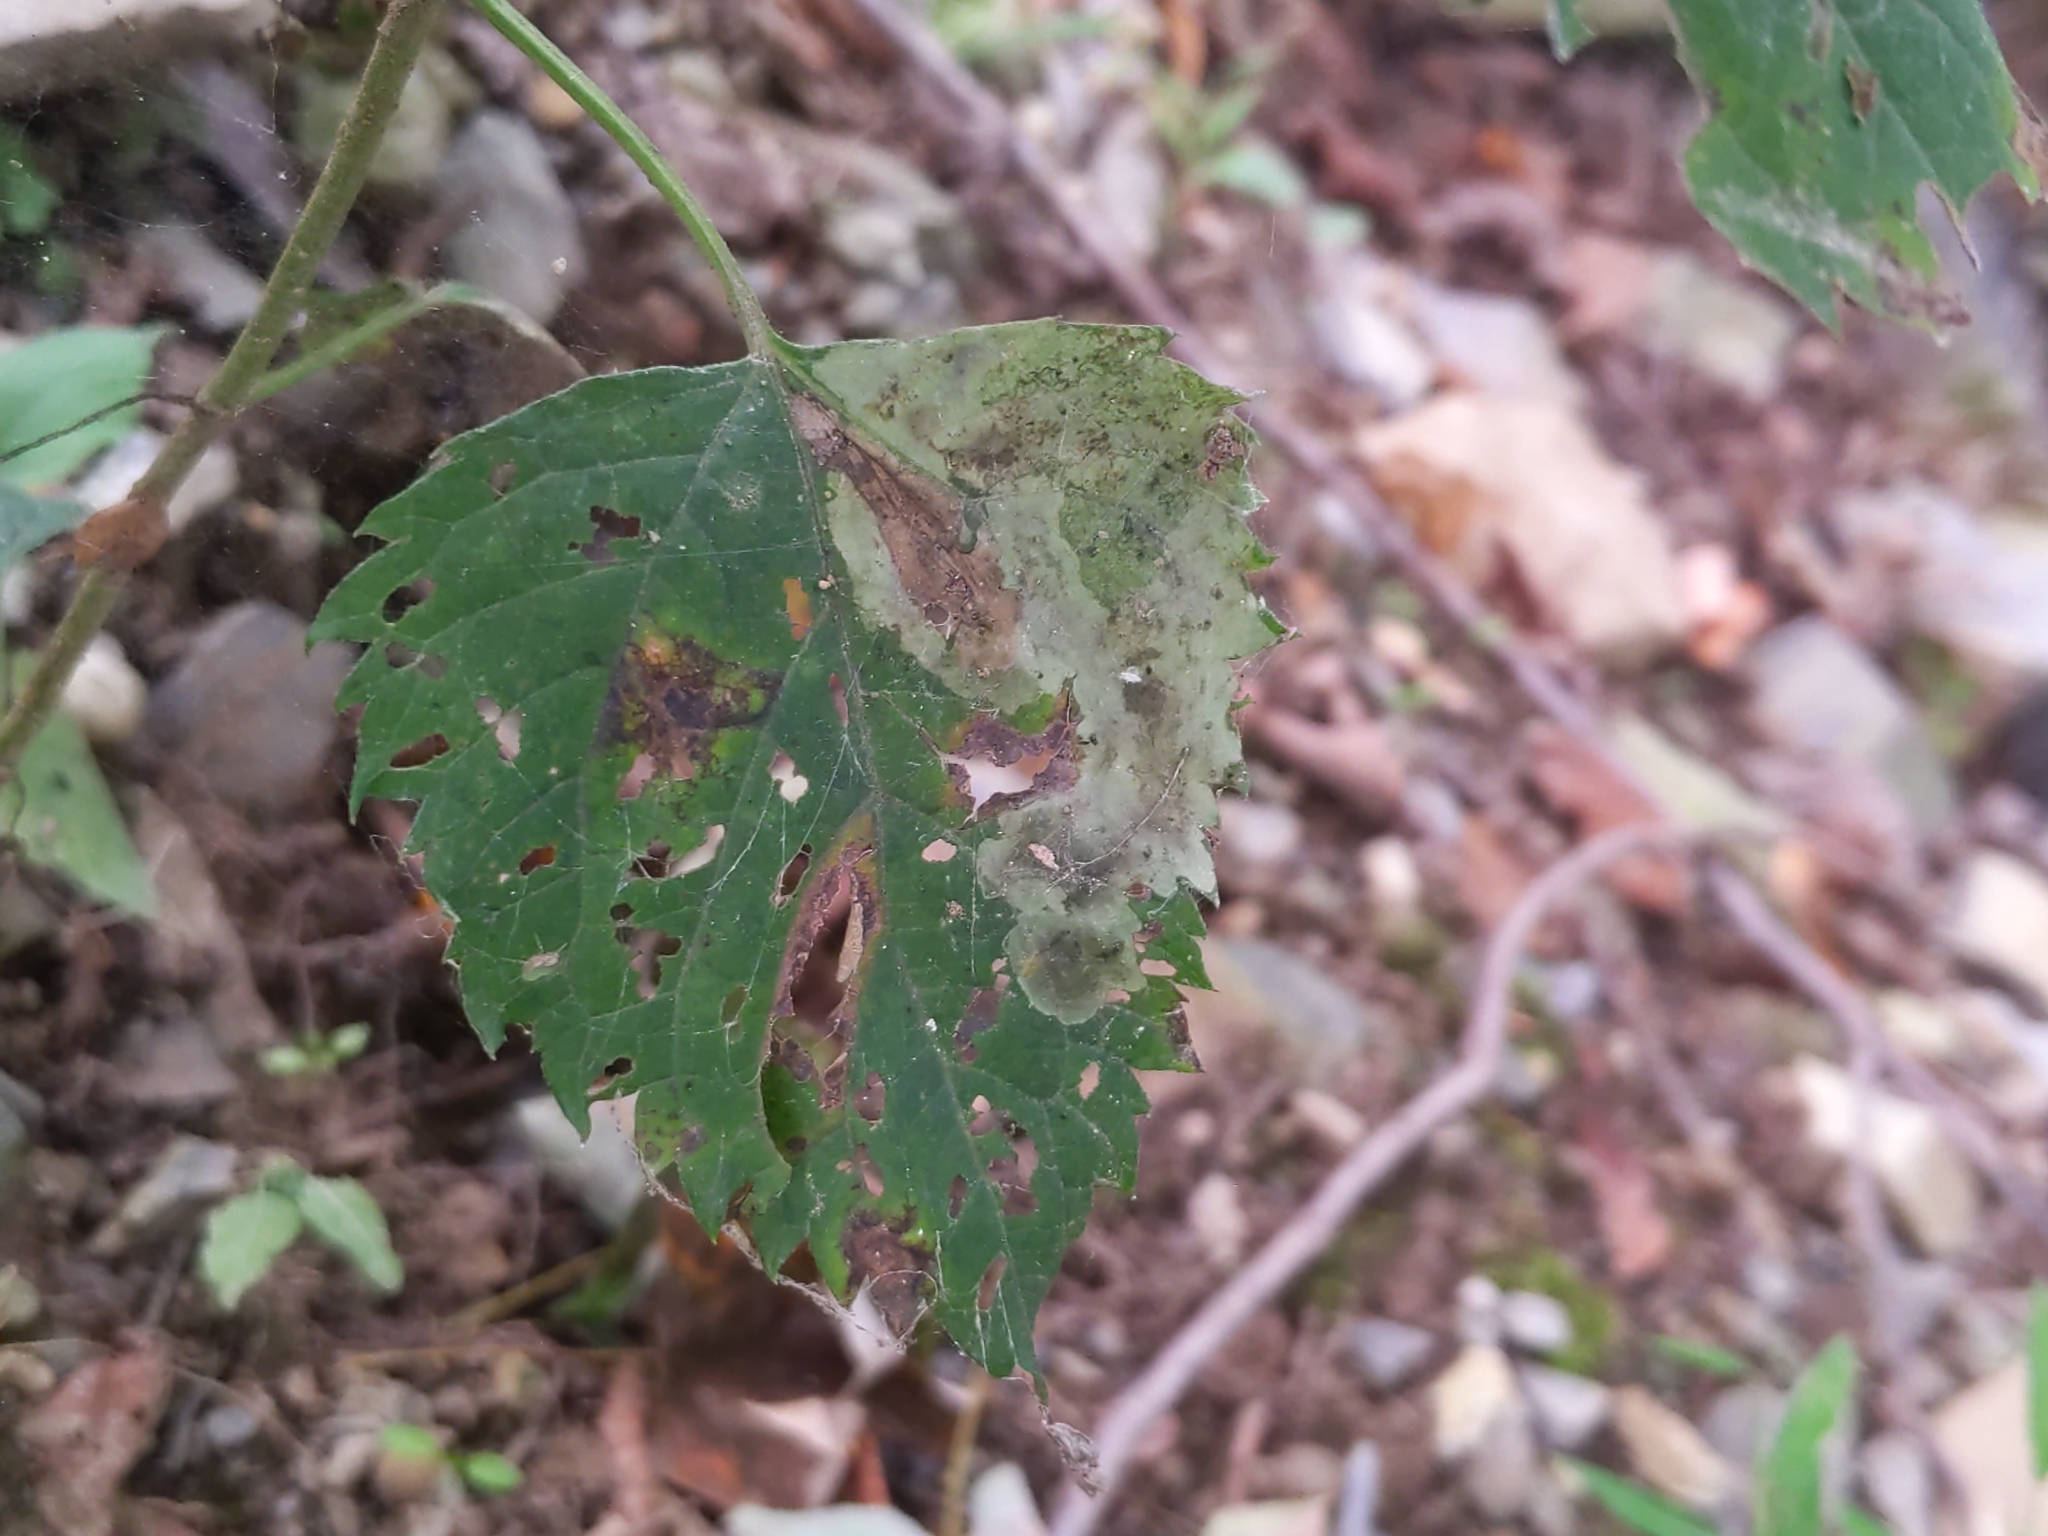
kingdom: Animalia
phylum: Arthropoda
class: Insecta
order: Diptera
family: Agromyzidae
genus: Calycomyza
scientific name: Calycomyza eupatoriphaga
